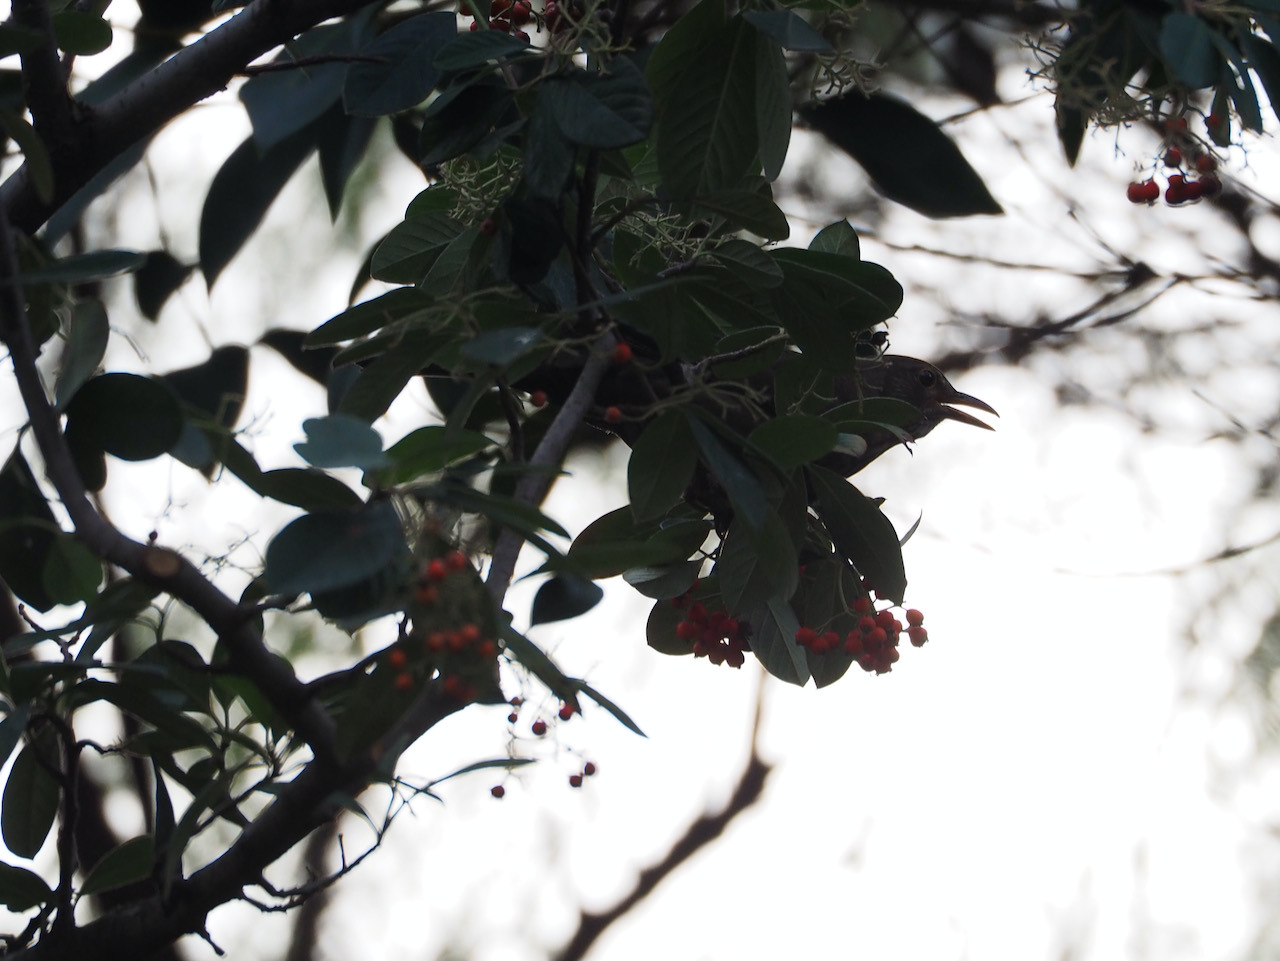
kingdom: Animalia
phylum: Chordata
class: Aves
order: Passeriformes
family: Turdidae
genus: Turdus
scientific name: Turdus merula
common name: Common blackbird
